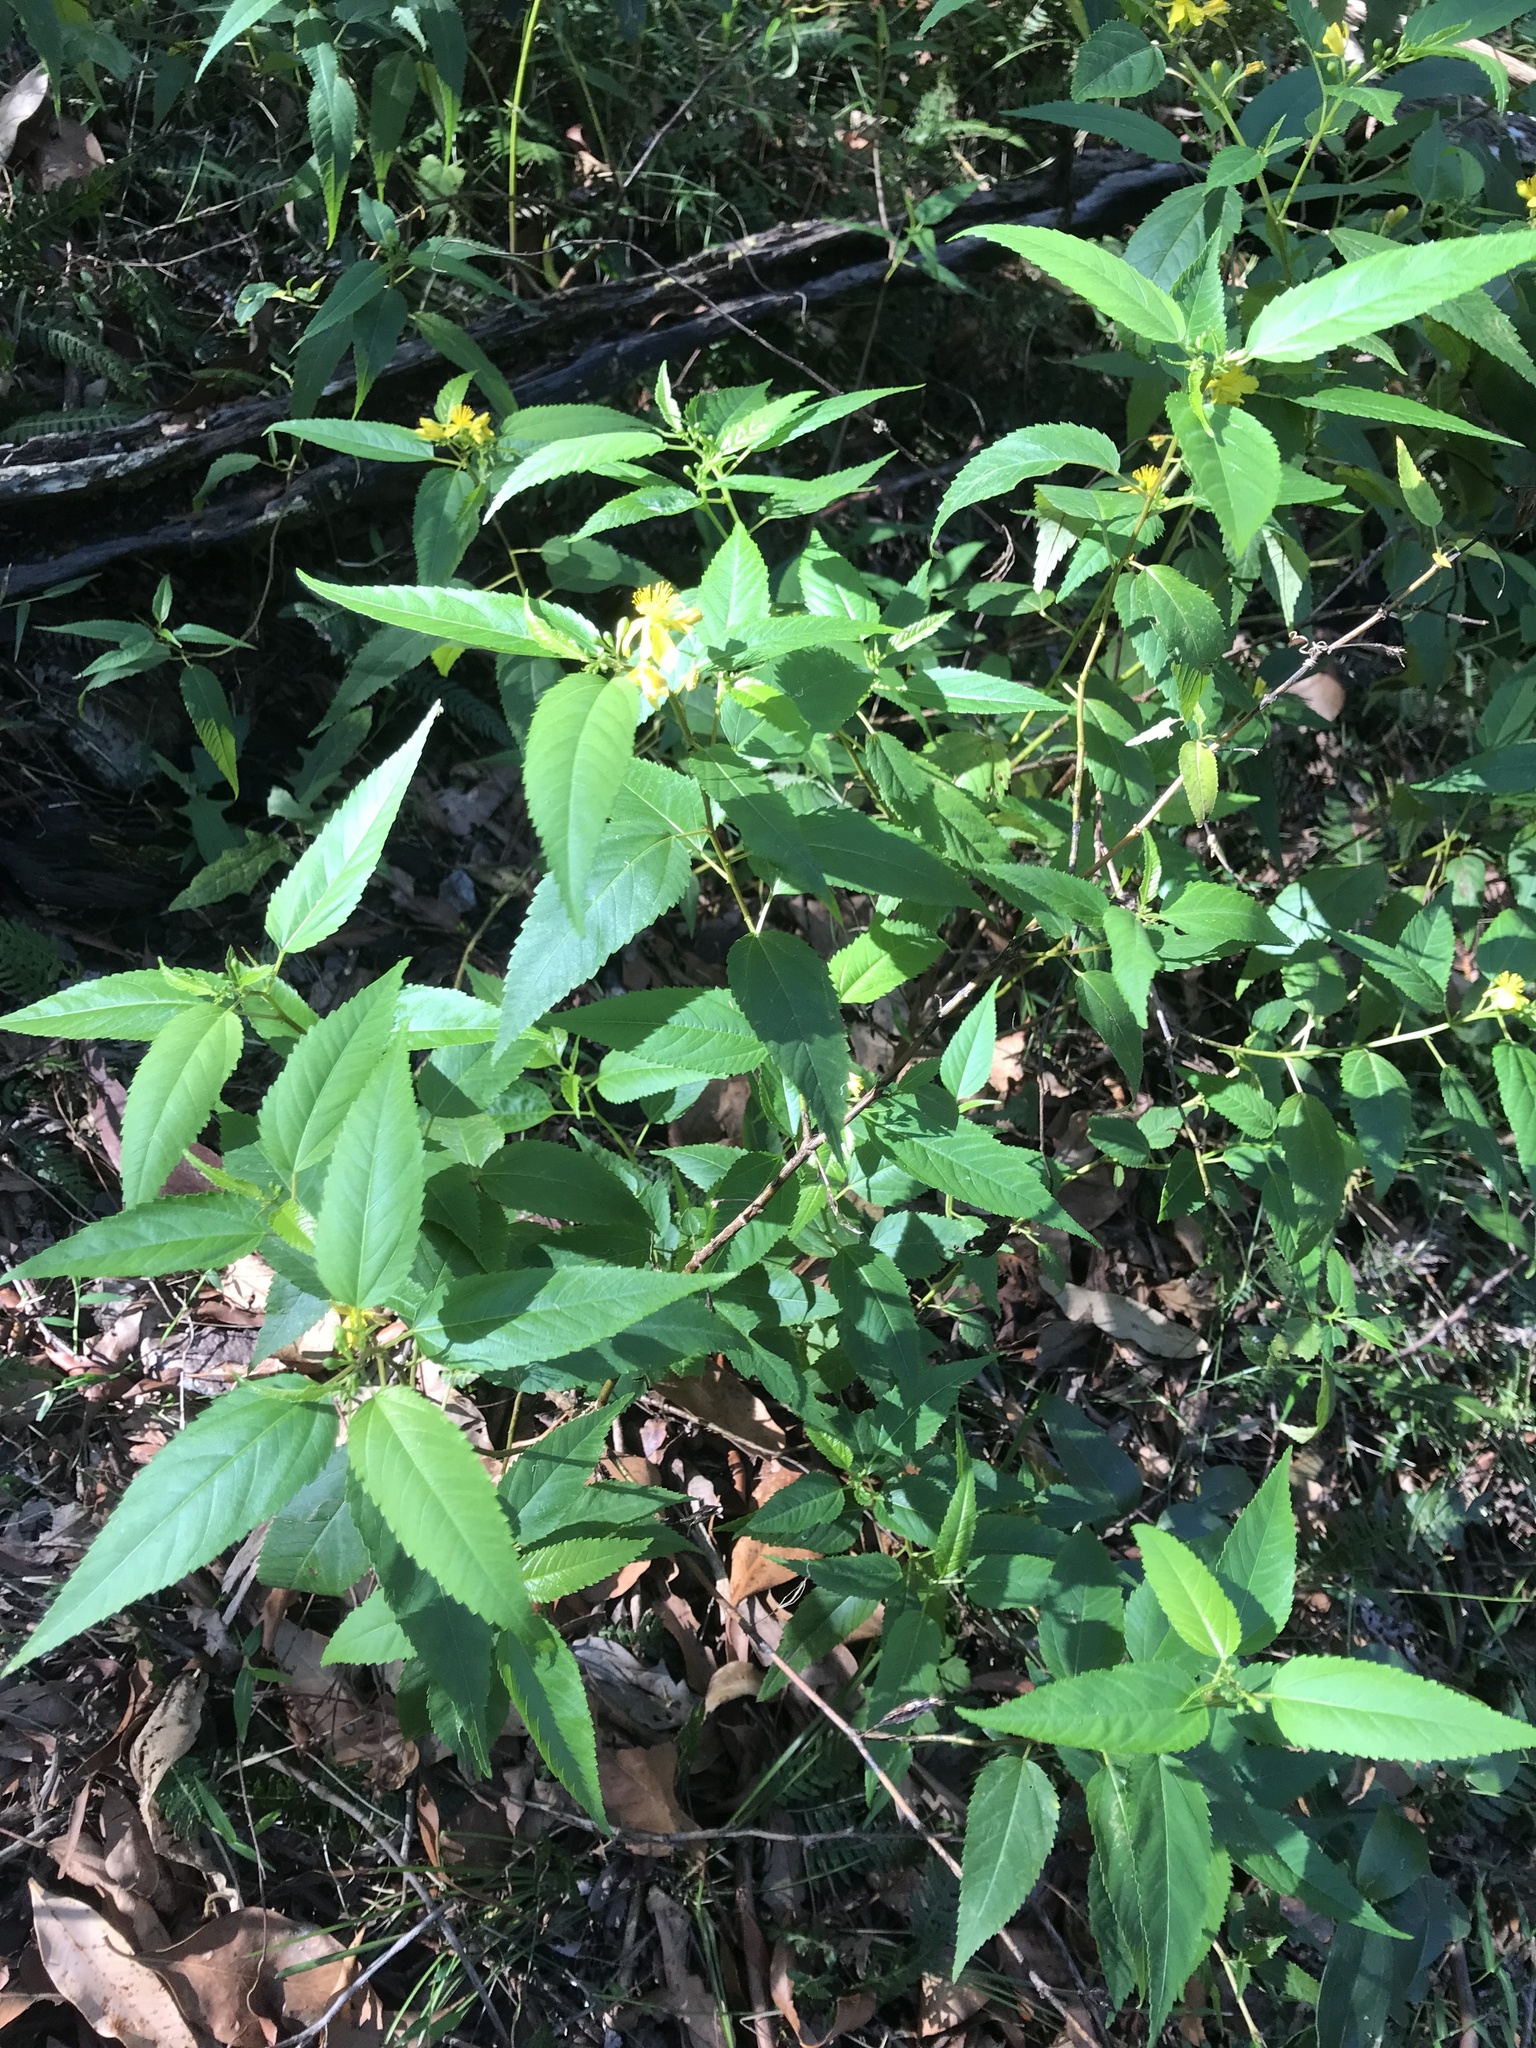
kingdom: Plantae
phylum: Tracheophyta
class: Magnoliopsida
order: Malvales
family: Malvaceae
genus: Corchorus
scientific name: Corchorus cunninghamii
